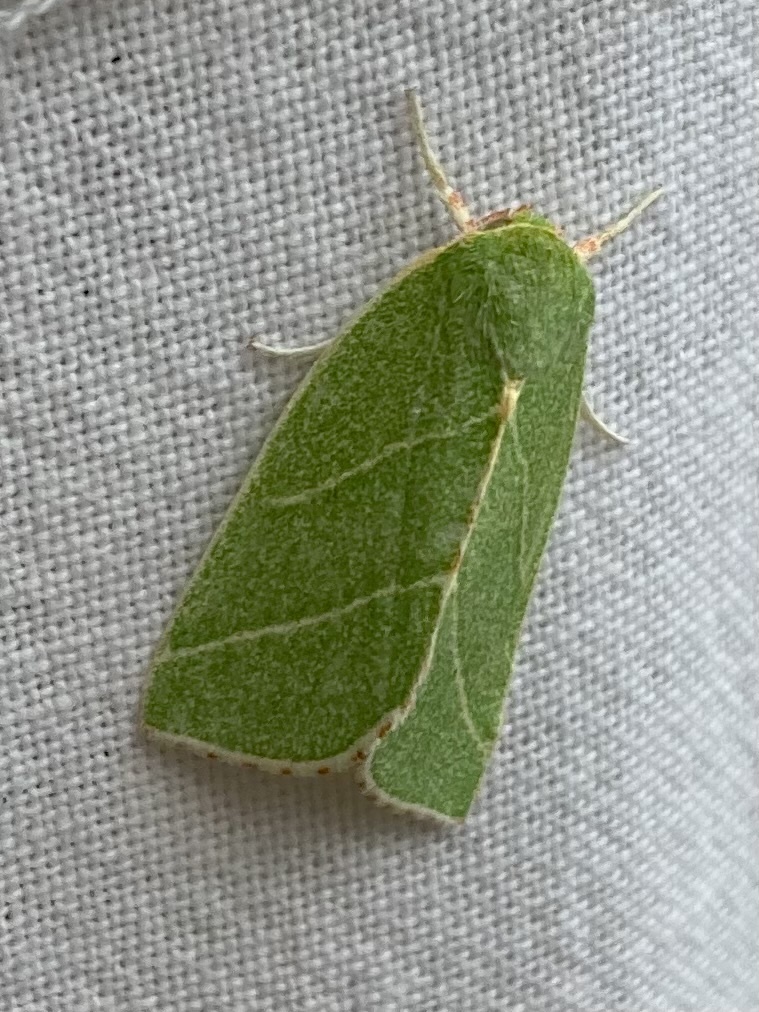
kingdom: Animalia
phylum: Arthropoda
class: Insecta
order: Lepidoptera
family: Nolidae
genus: Bena
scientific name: Bena bicolorana
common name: Scarce silver-lines
